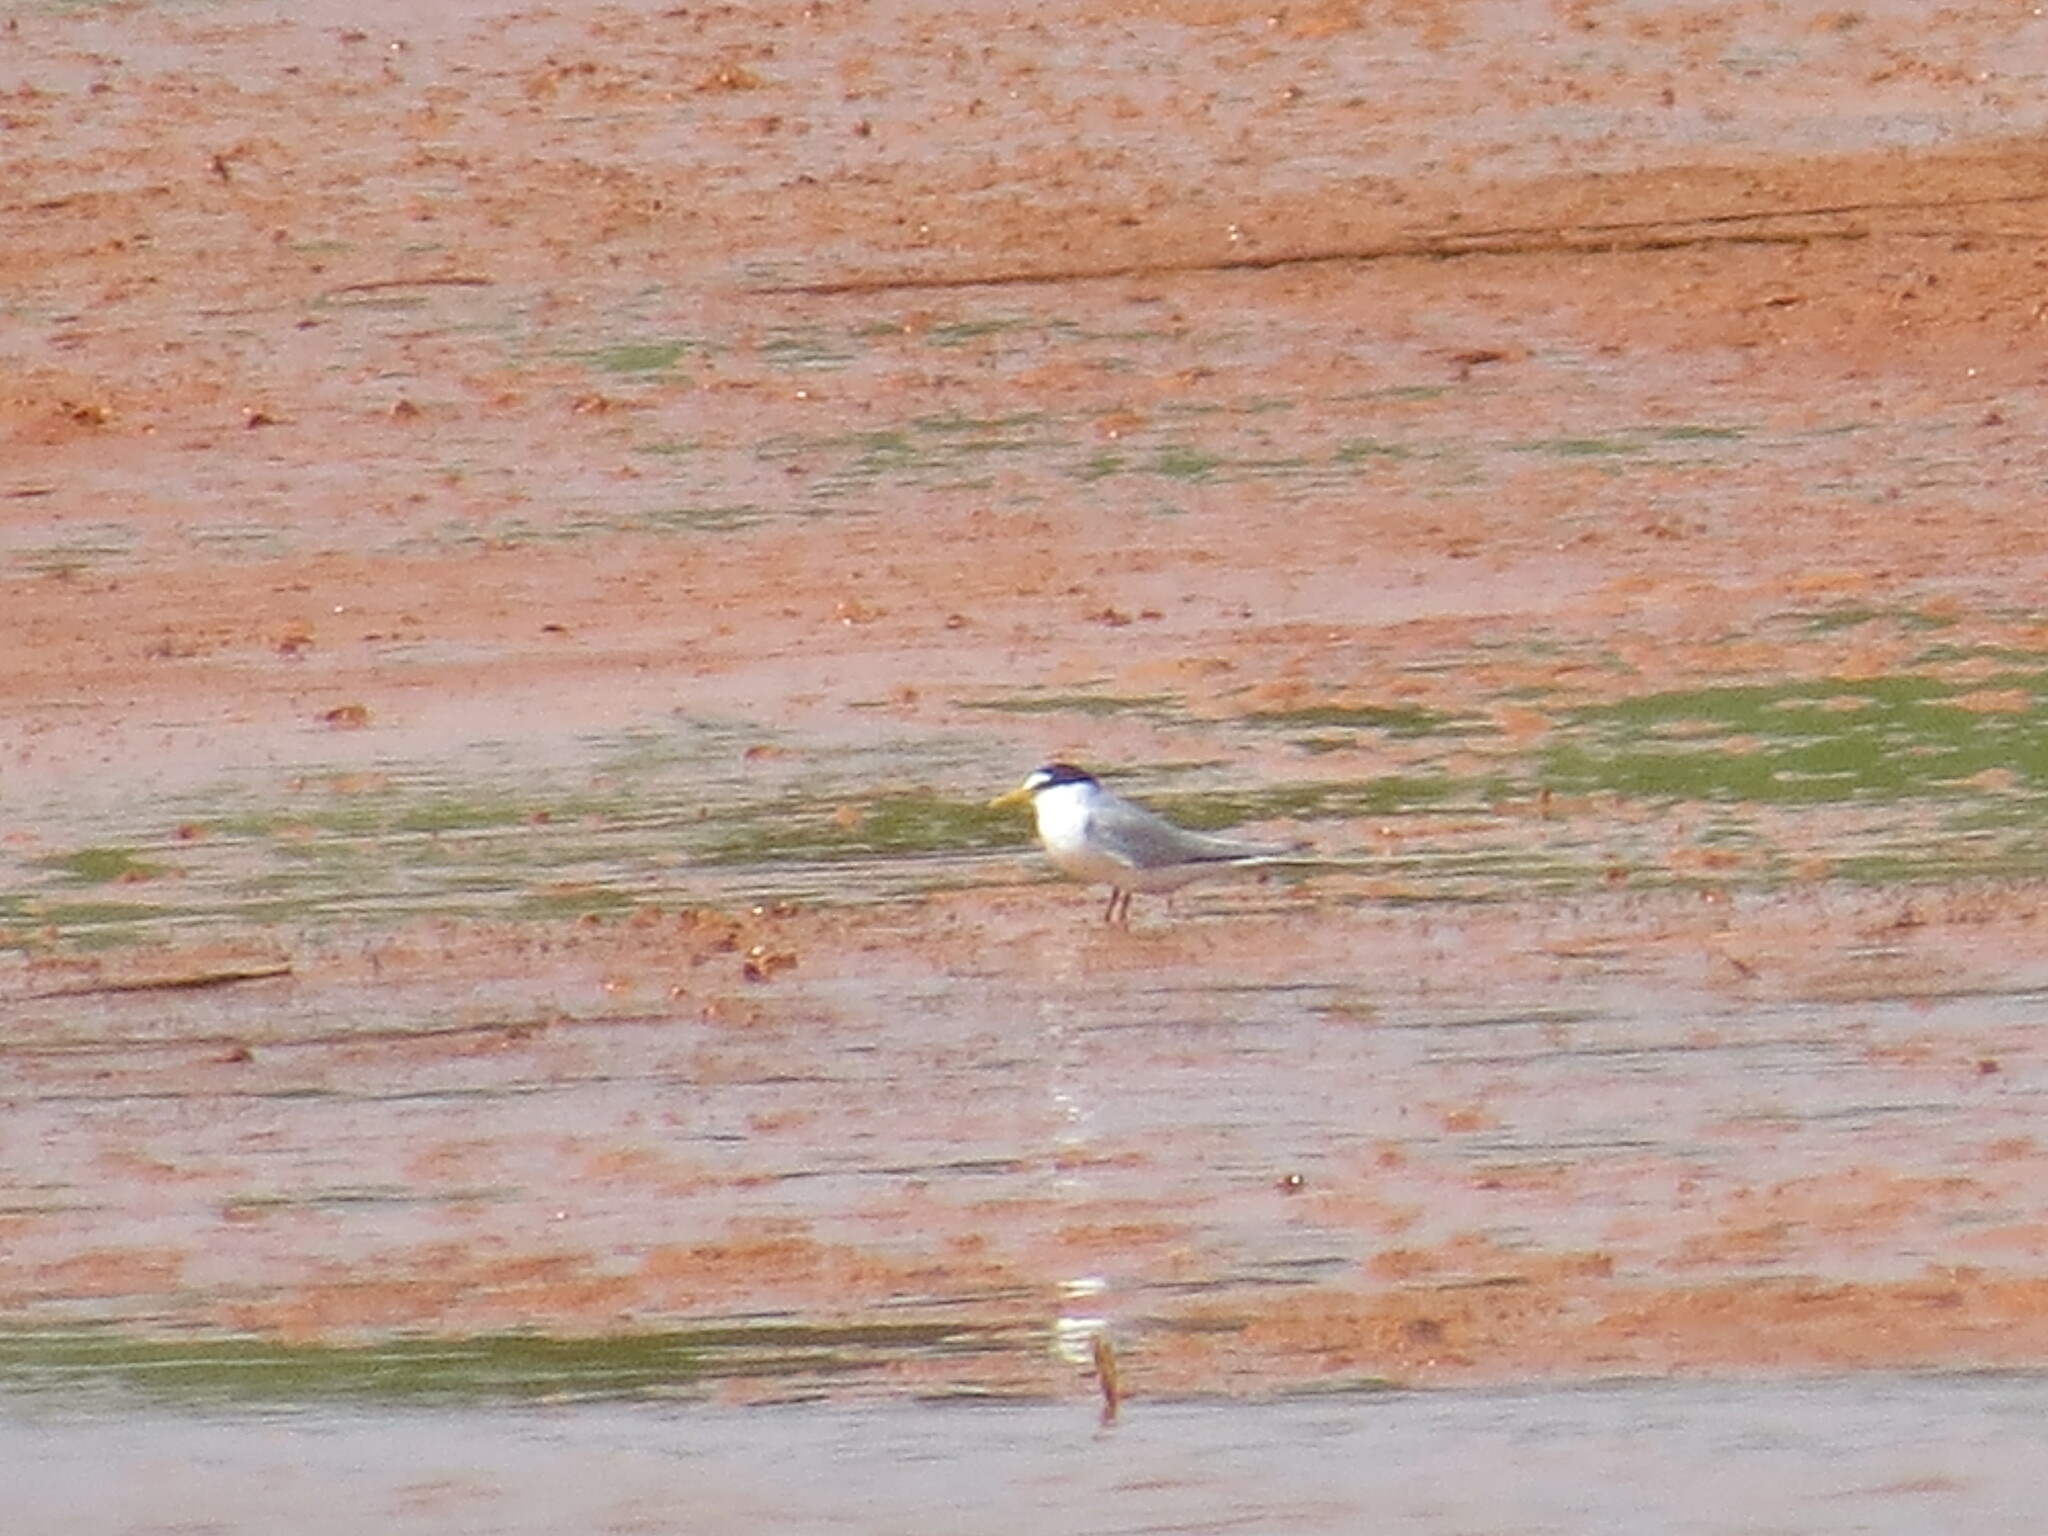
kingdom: Animalia
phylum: Chordata
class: Aves
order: Charadriiformes
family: Laridae
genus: Sternula
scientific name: Sternula albifrons
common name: Little tern
